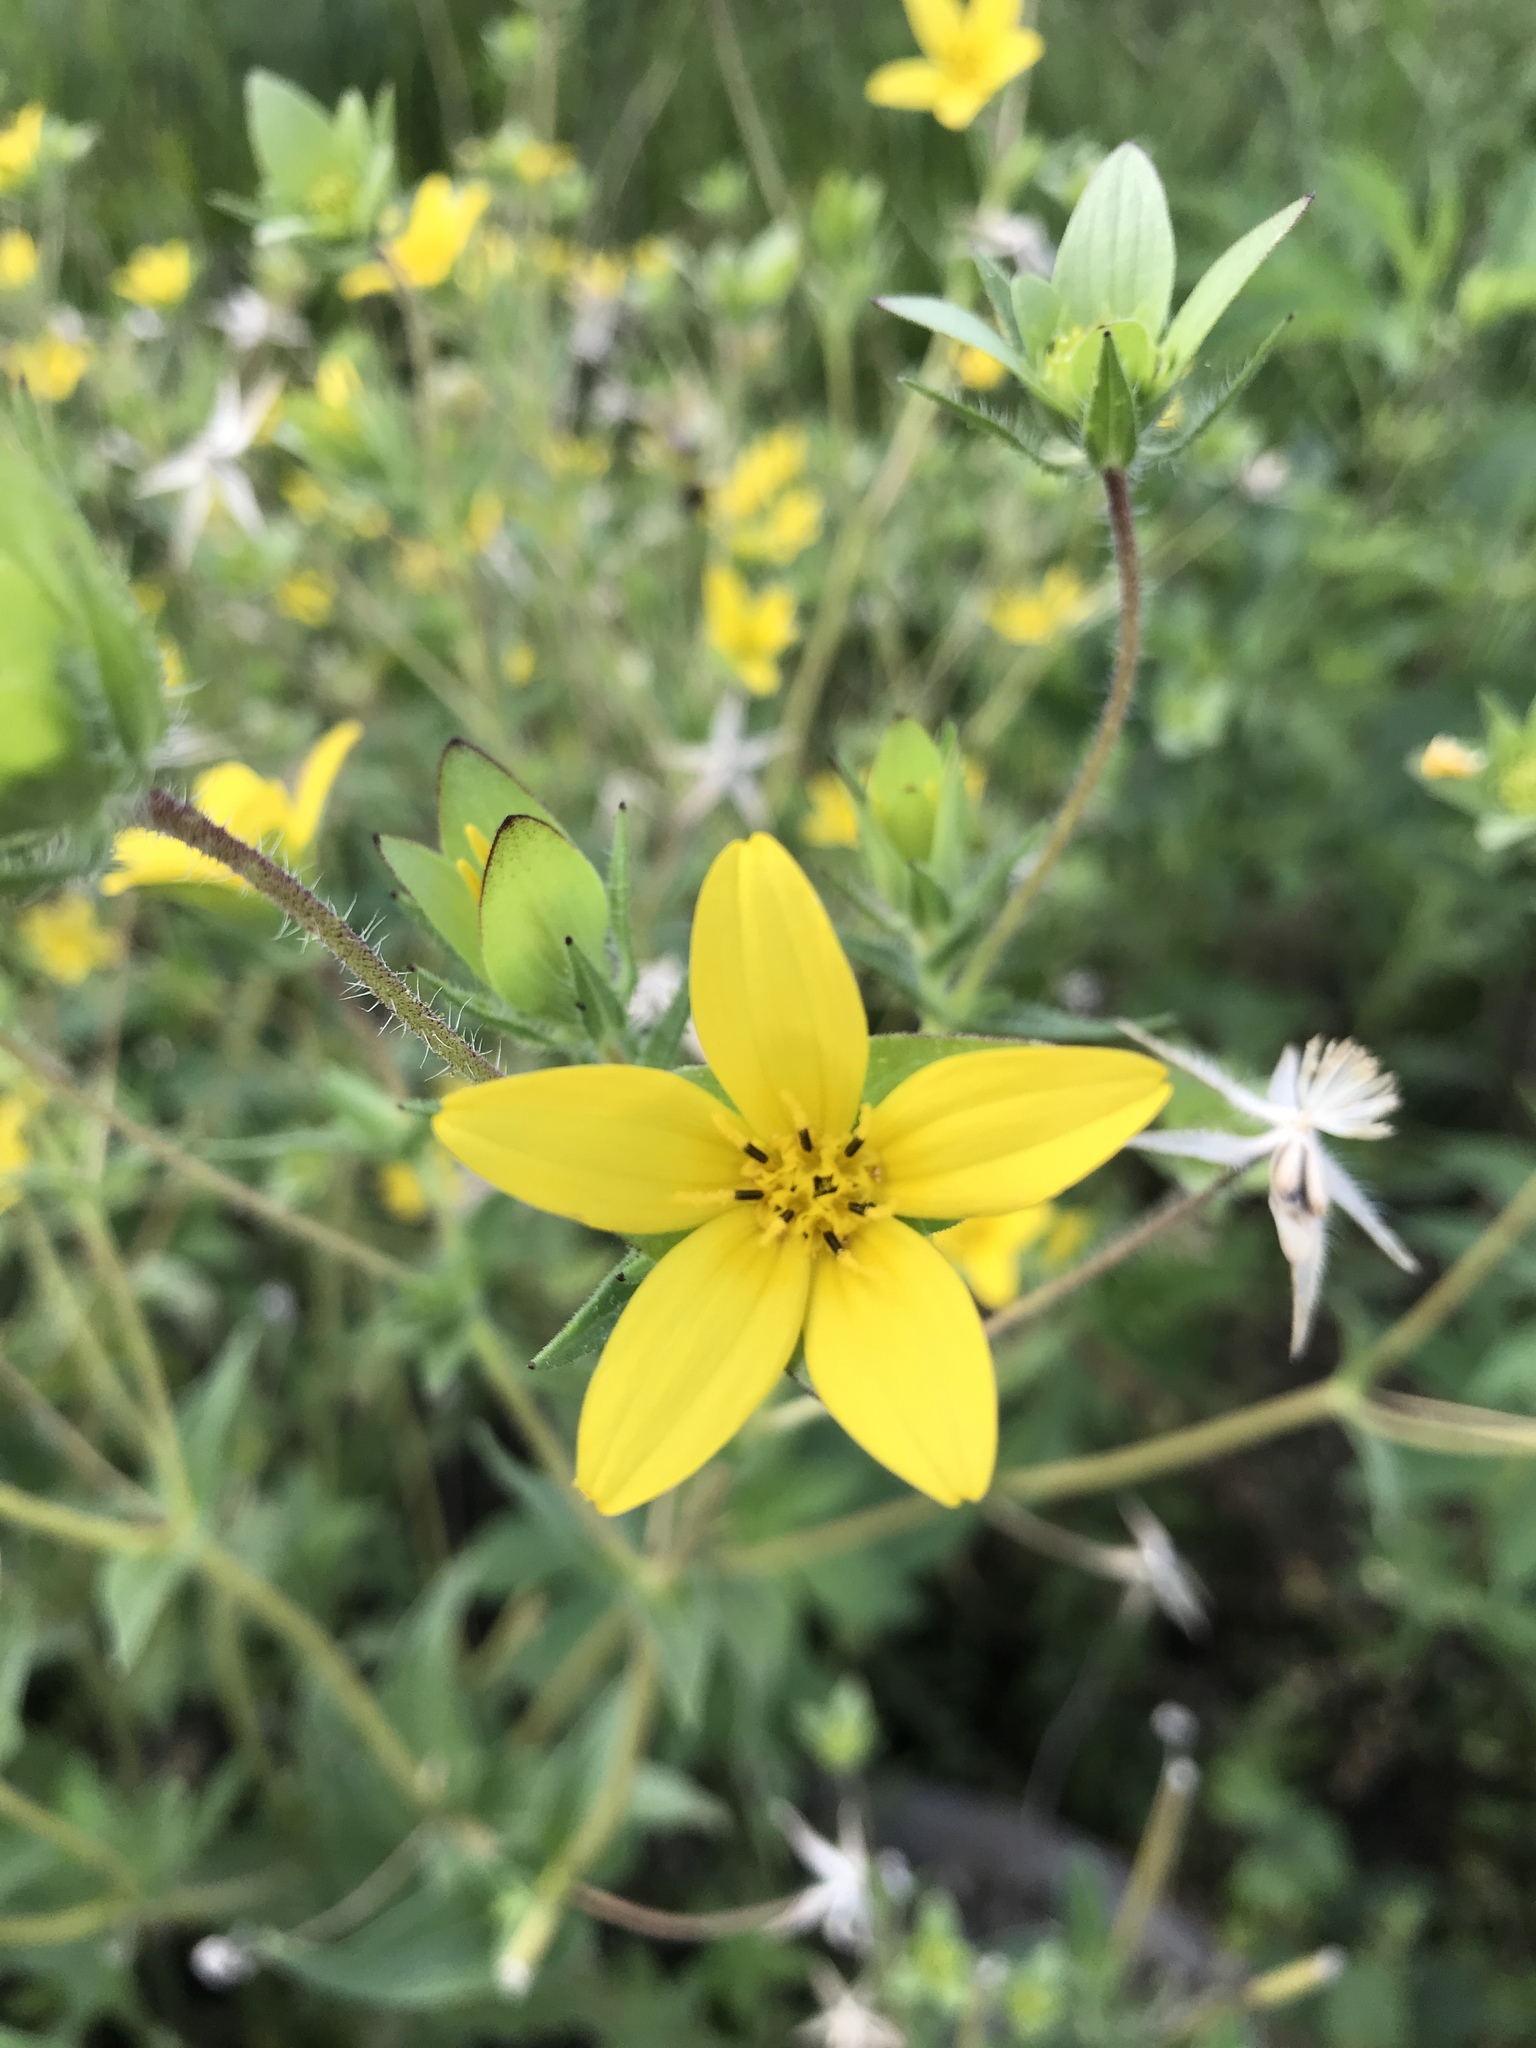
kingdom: Plantae
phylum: Tracheophyta
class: Magnoliopsida
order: Asterales
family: Asteraceae
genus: Lindheimera
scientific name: Lindheimera texana
